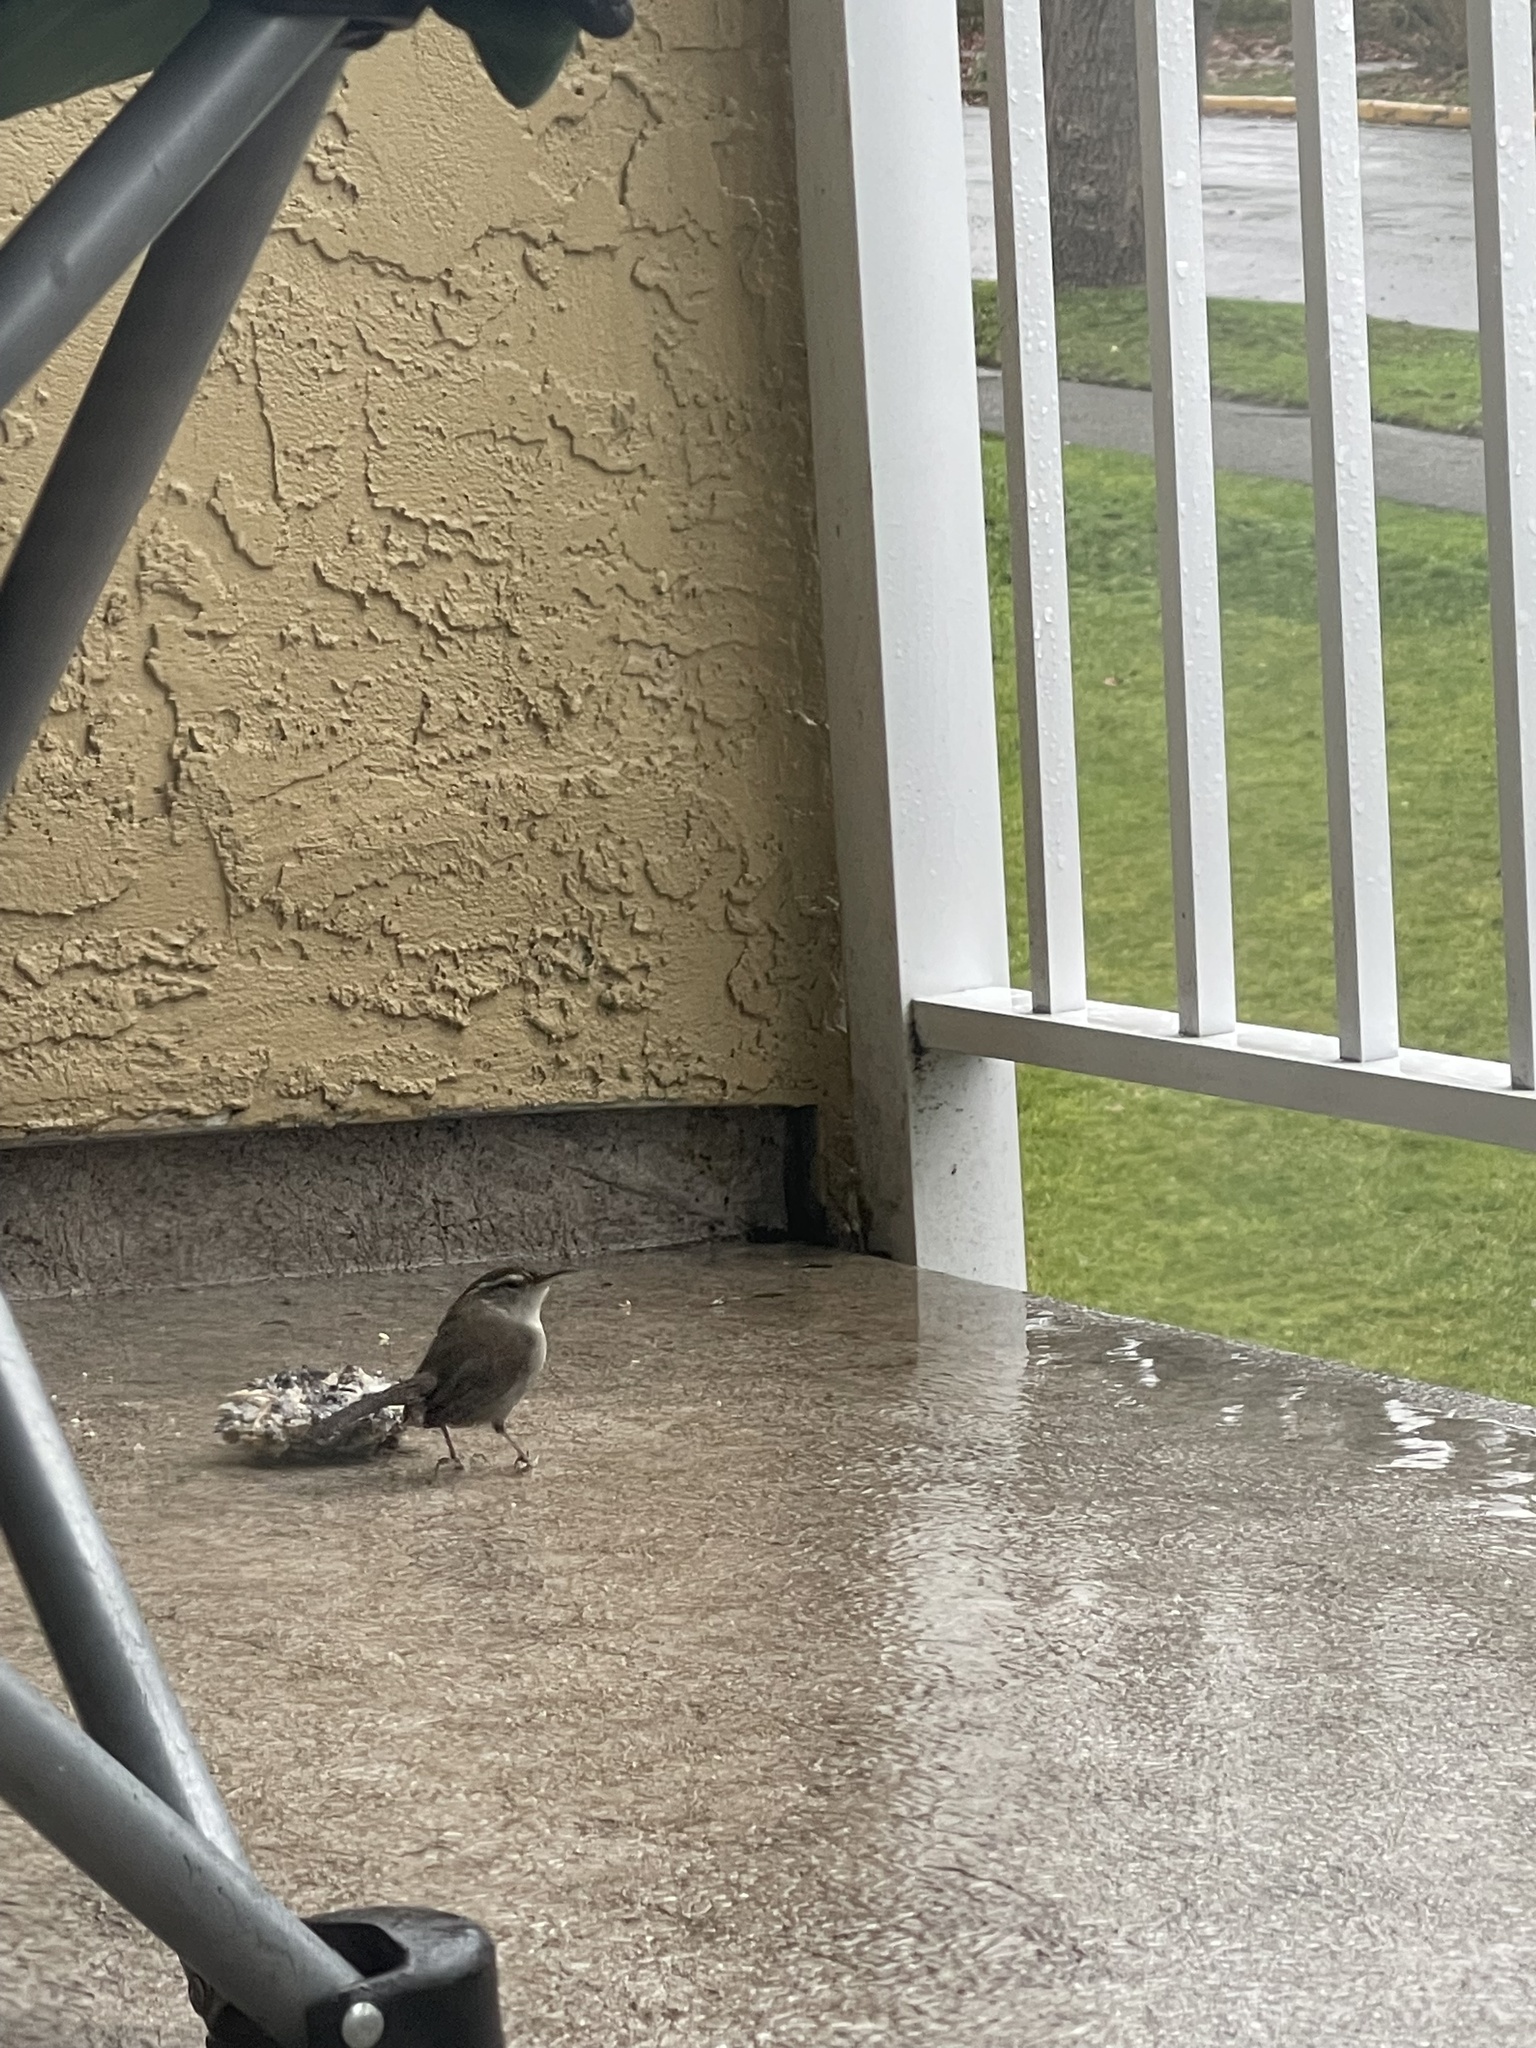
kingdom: Animalia
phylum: Chordata
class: Aves
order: Passeriformes
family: Troglodytidae
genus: Thryomanes
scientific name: Thryomanes bewickii
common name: Bewick's wren
